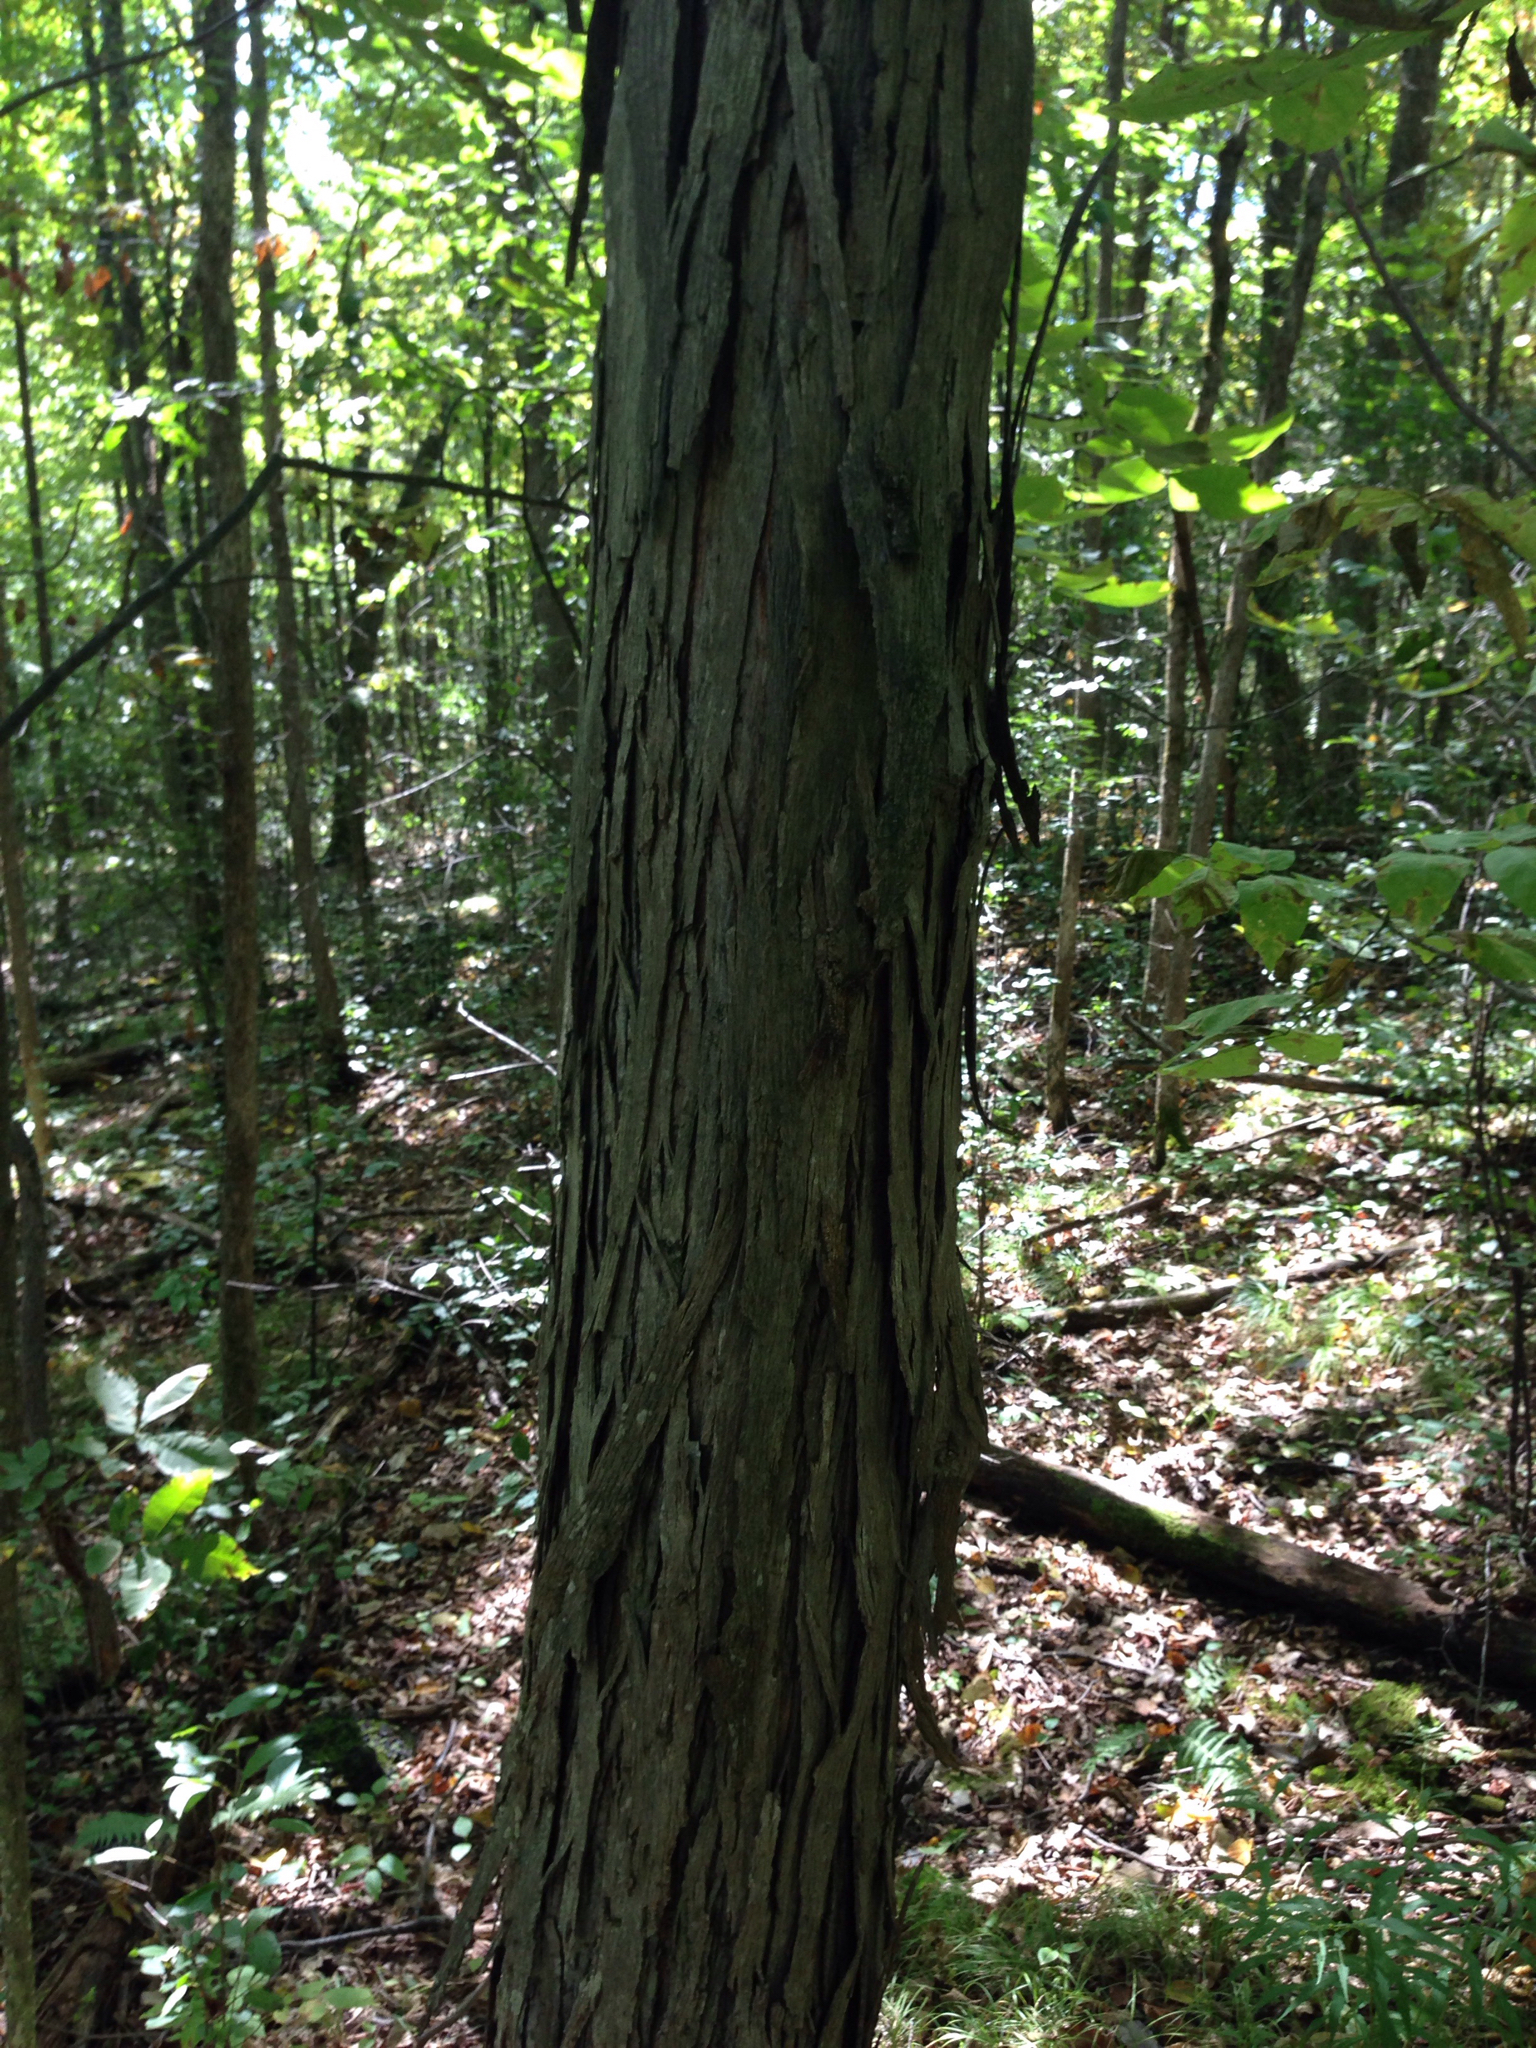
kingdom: Plantae
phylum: Tracheophyta
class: Magnoliopsida
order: Fagales
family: Juglandaceae
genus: Carya
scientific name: Carya ovata
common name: Shagbark hickory
